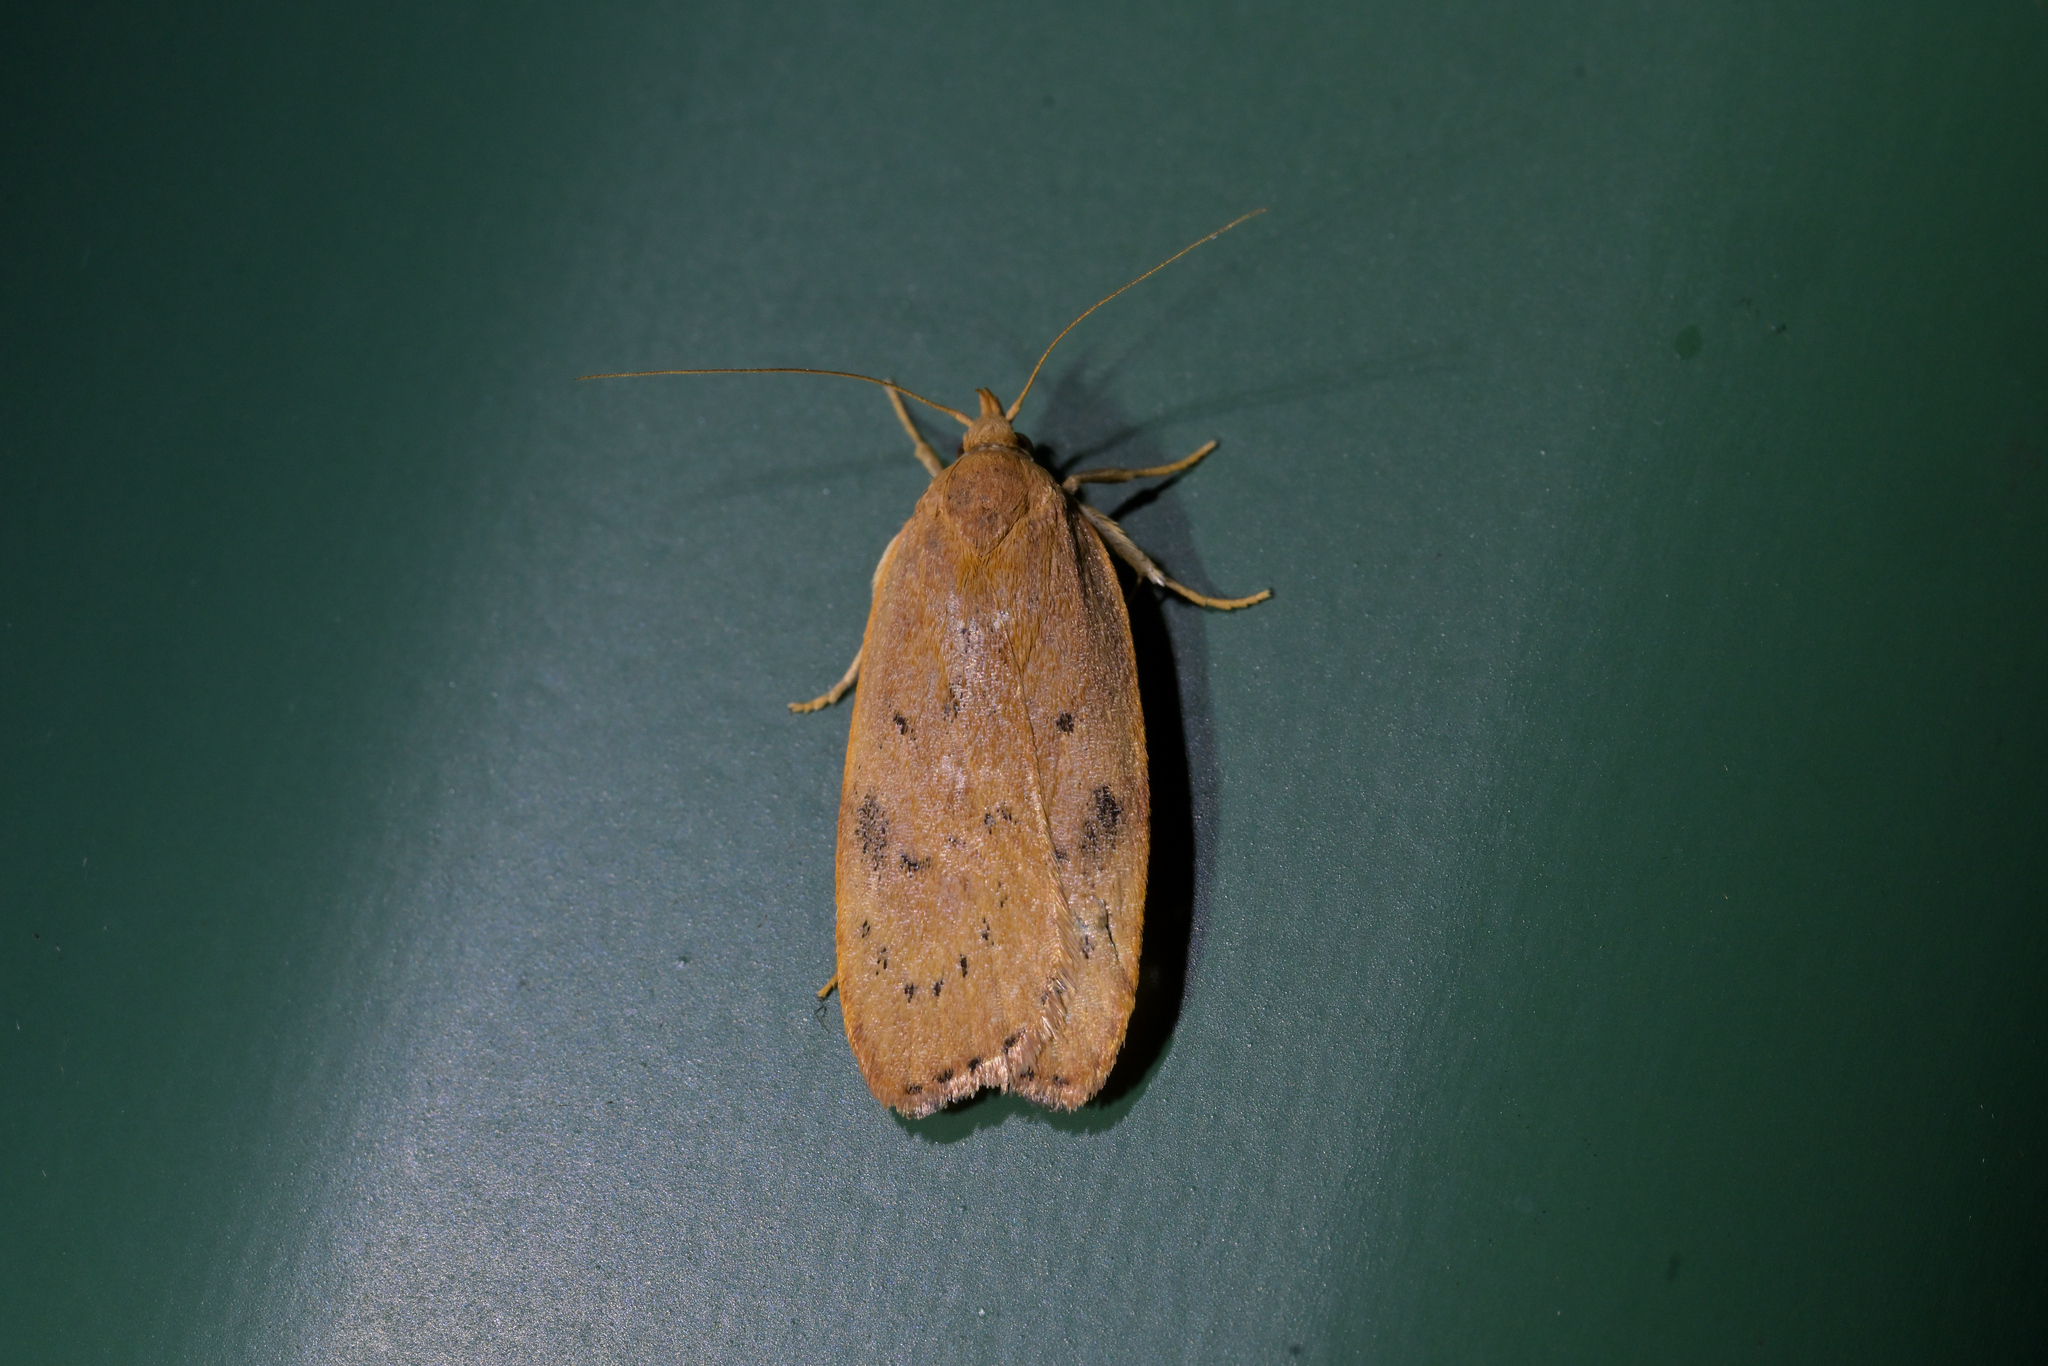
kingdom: Animalia
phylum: Arthropoda
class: Insecta
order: Lepidoptera
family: Depressariidae
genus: Phaeosaces
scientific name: Phaeosaces coarctatella
